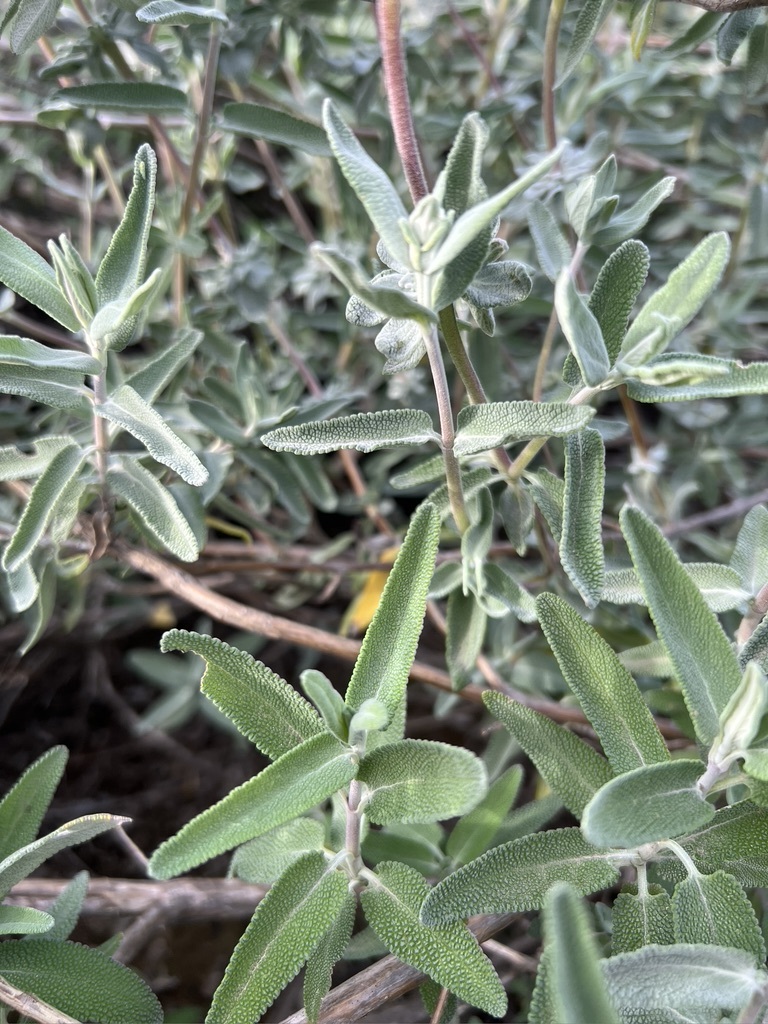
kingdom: Plantae
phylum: Tracheophyta
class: Magnoliopsida
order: Lamiales
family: Lamiaceae
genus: Salvia
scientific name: Salvia leucophylla
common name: Purple sage
